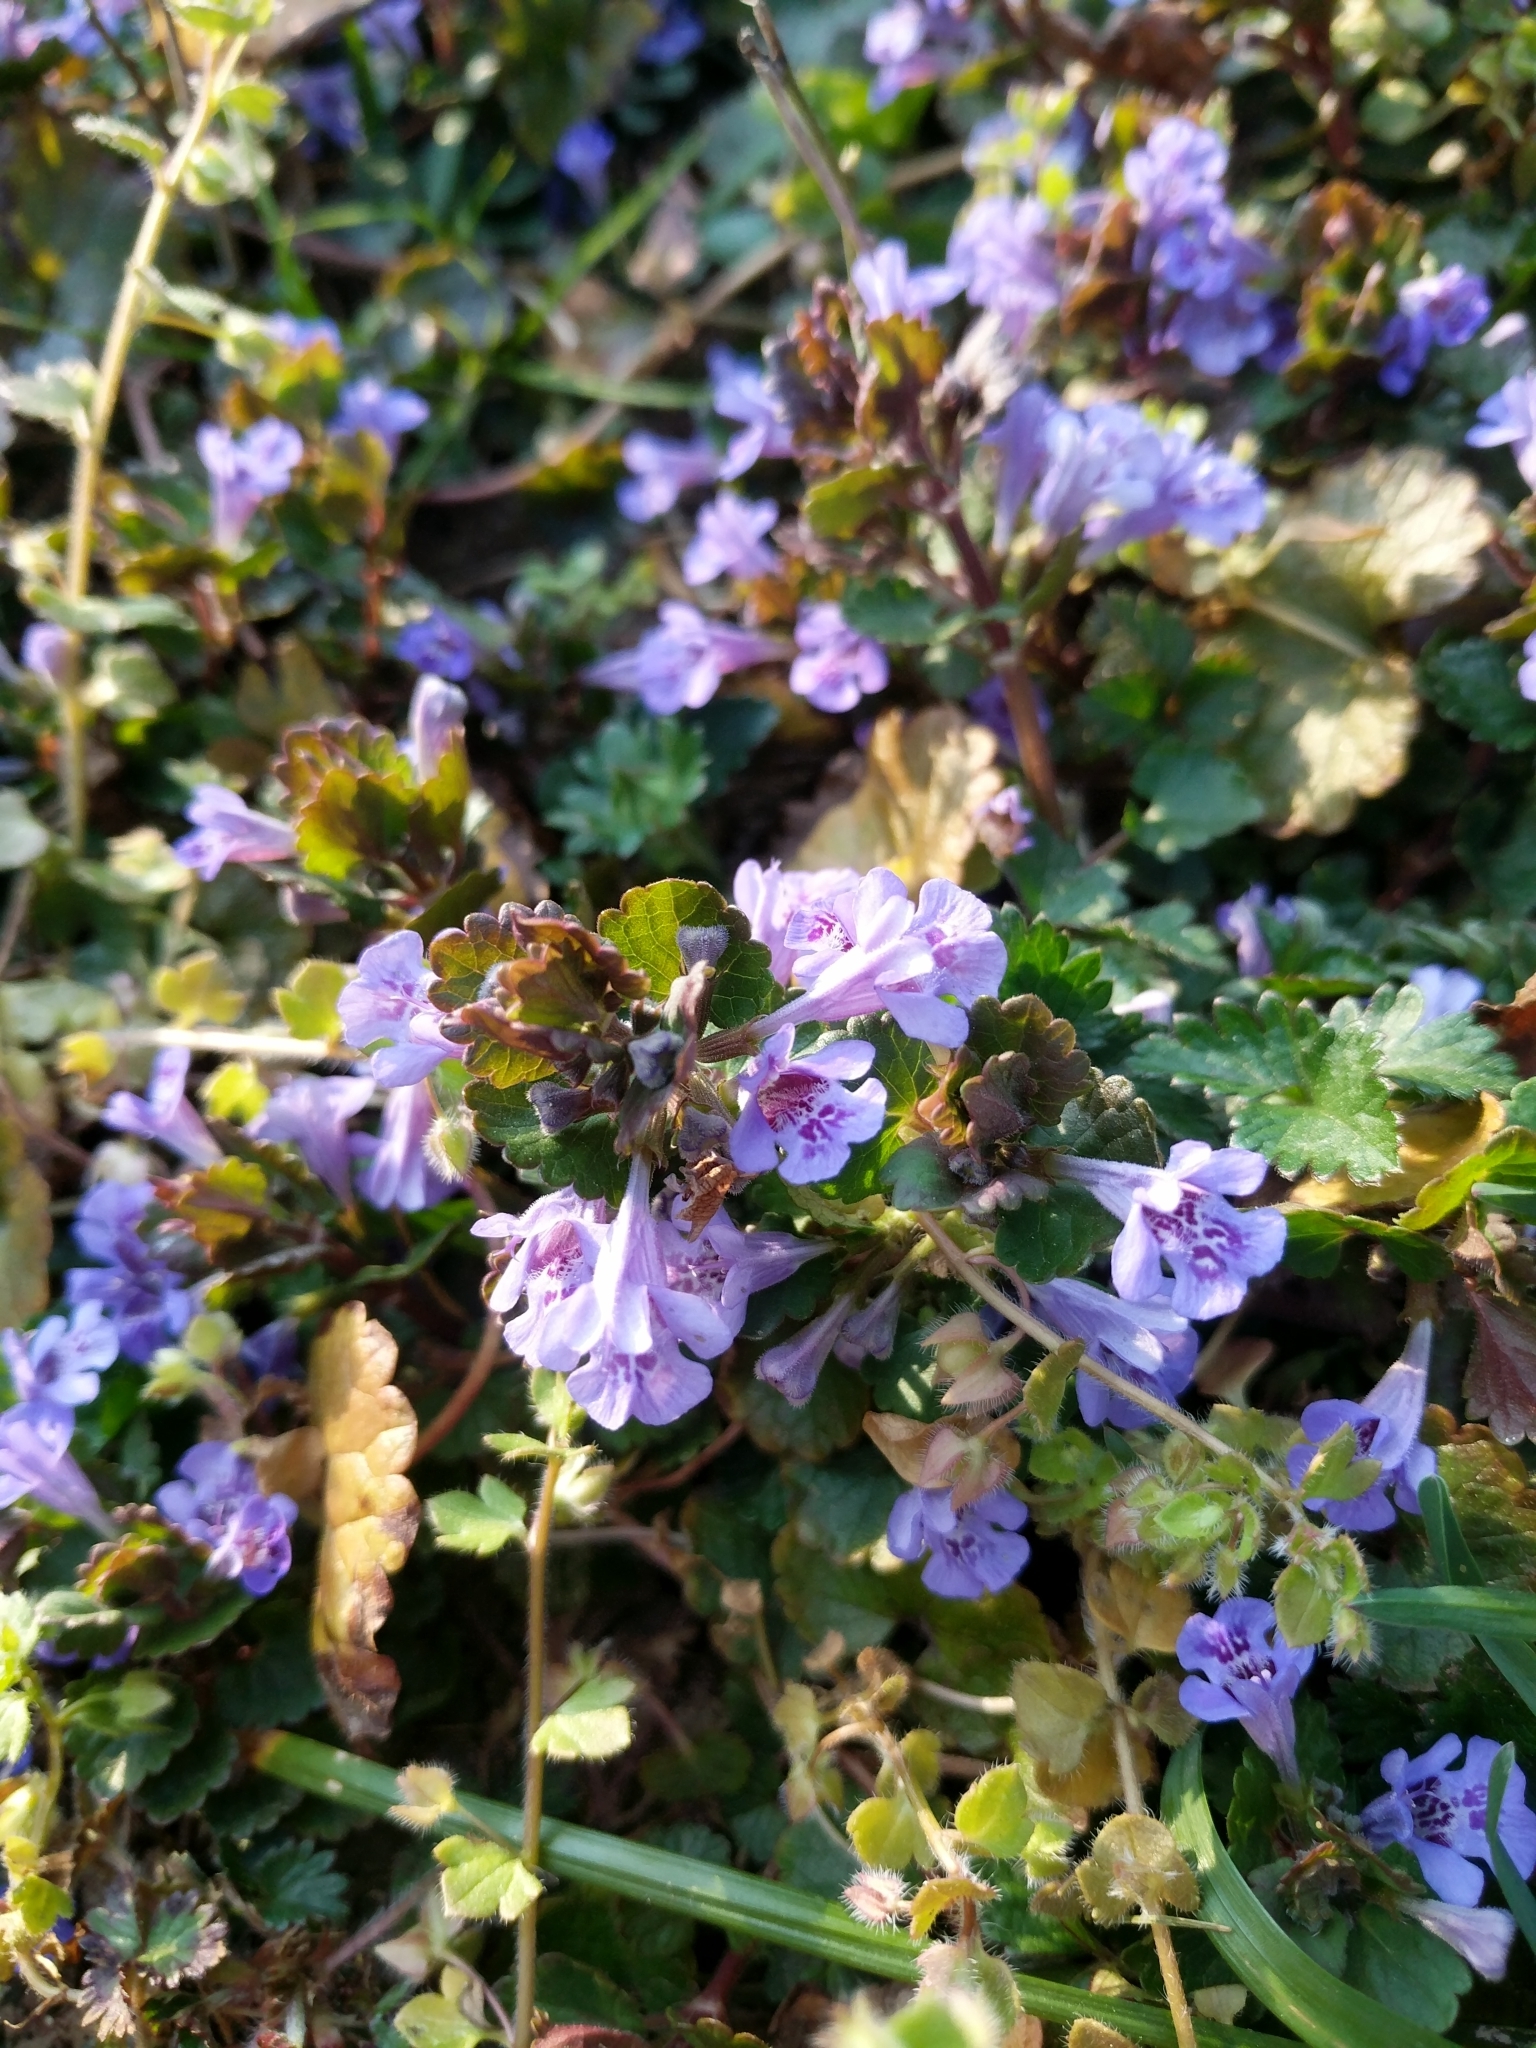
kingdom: Plantae
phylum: Tracheophyta
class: Magnoliopsida
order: Lamiales
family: Lamiaceae
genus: Glechoma
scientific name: Glechoma hederacea
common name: Ground ivy
